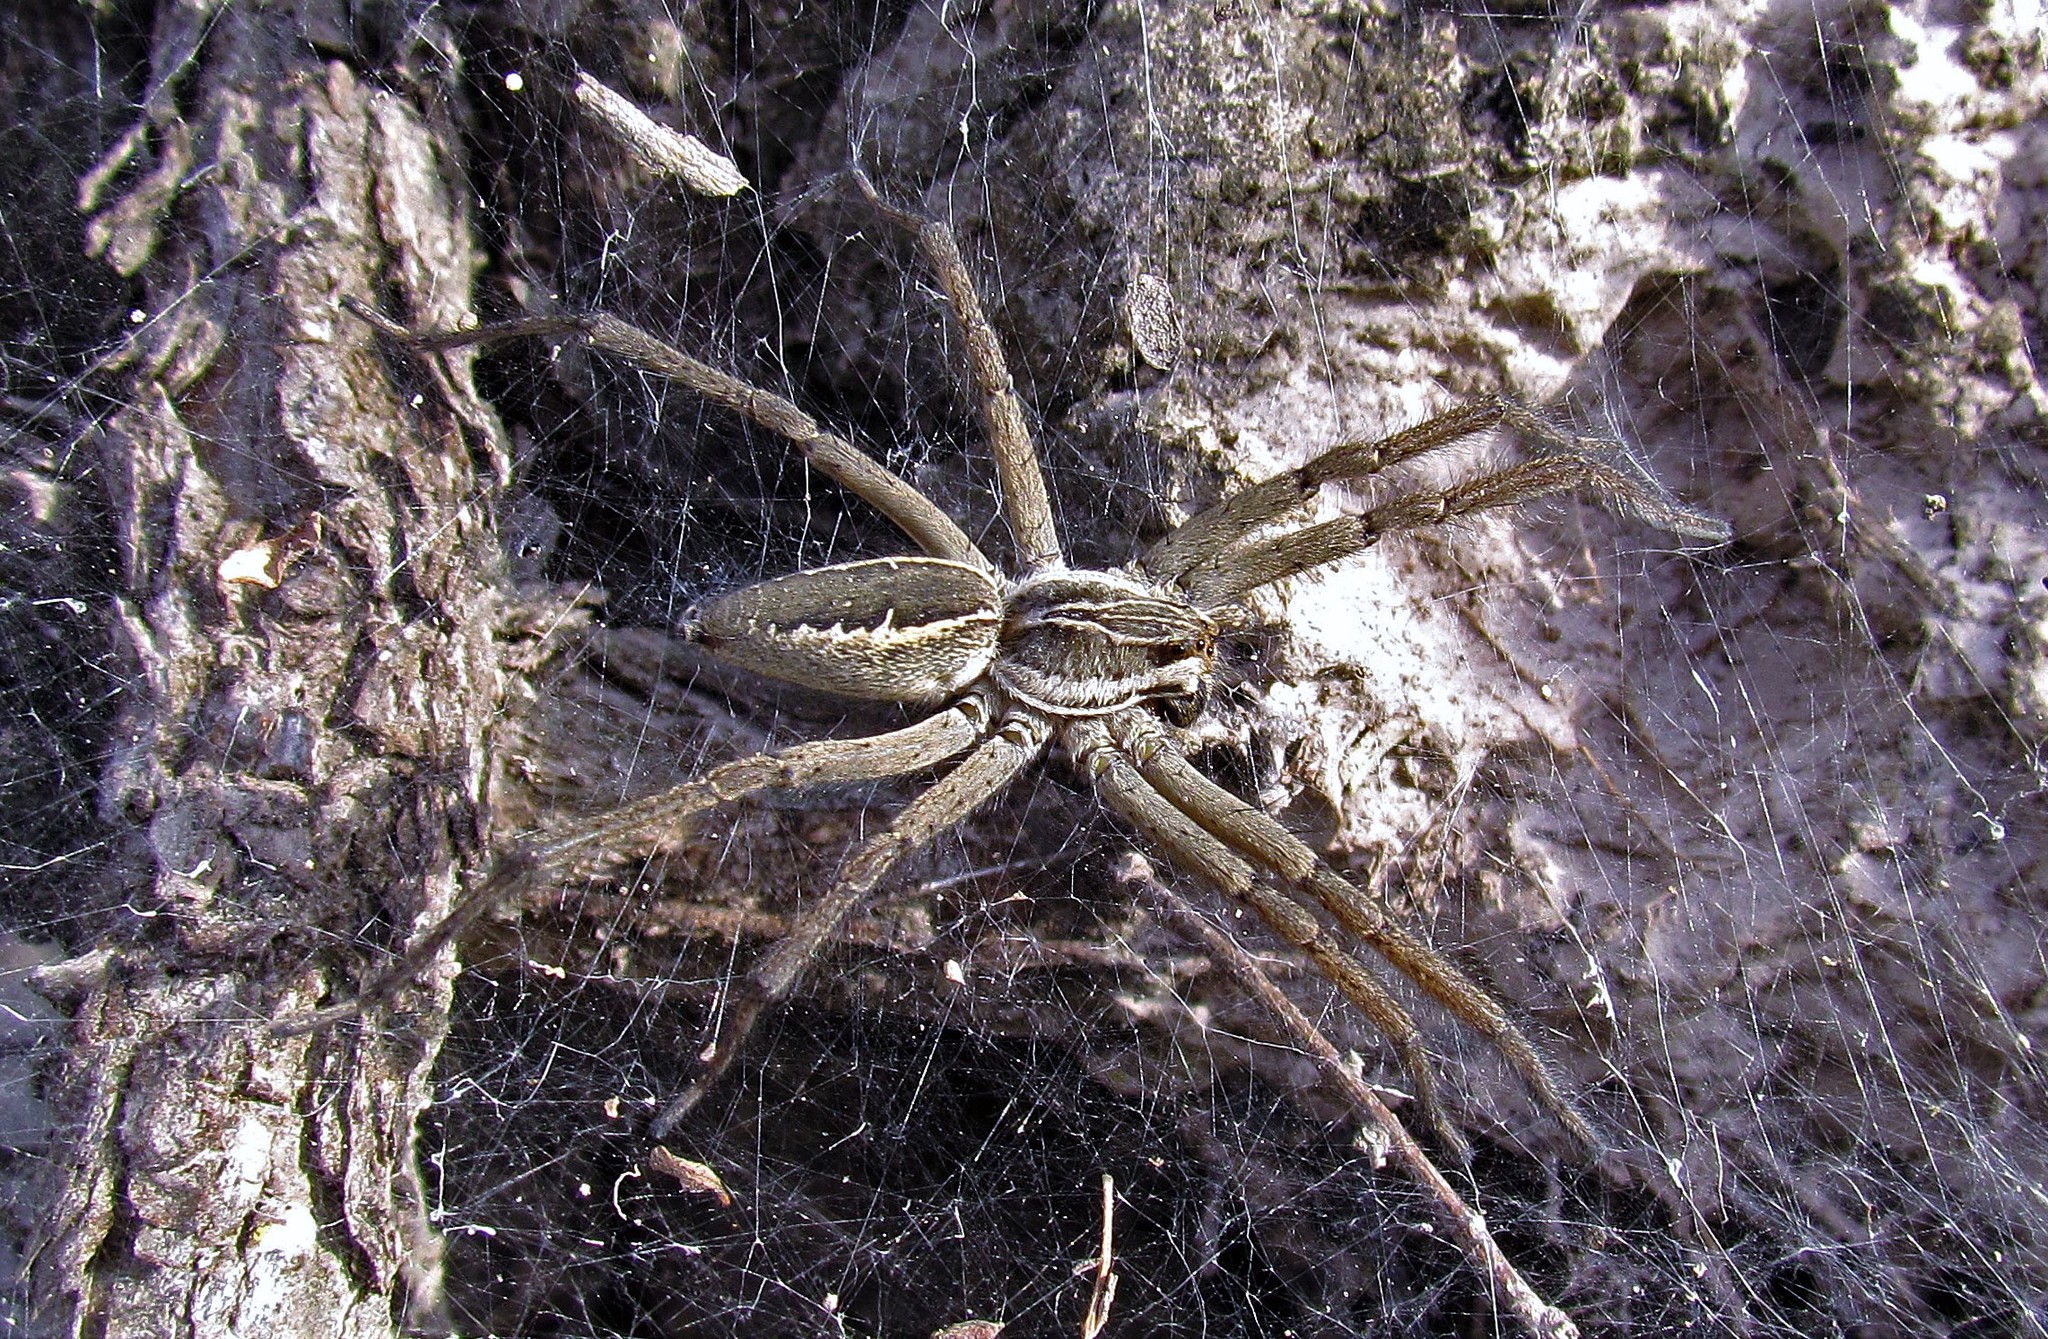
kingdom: Animalia
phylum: Arthropoda
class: Arachnida
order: Araneae
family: Lycosidae
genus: Aglaoctenus
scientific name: Aglaoctenus lagotis
